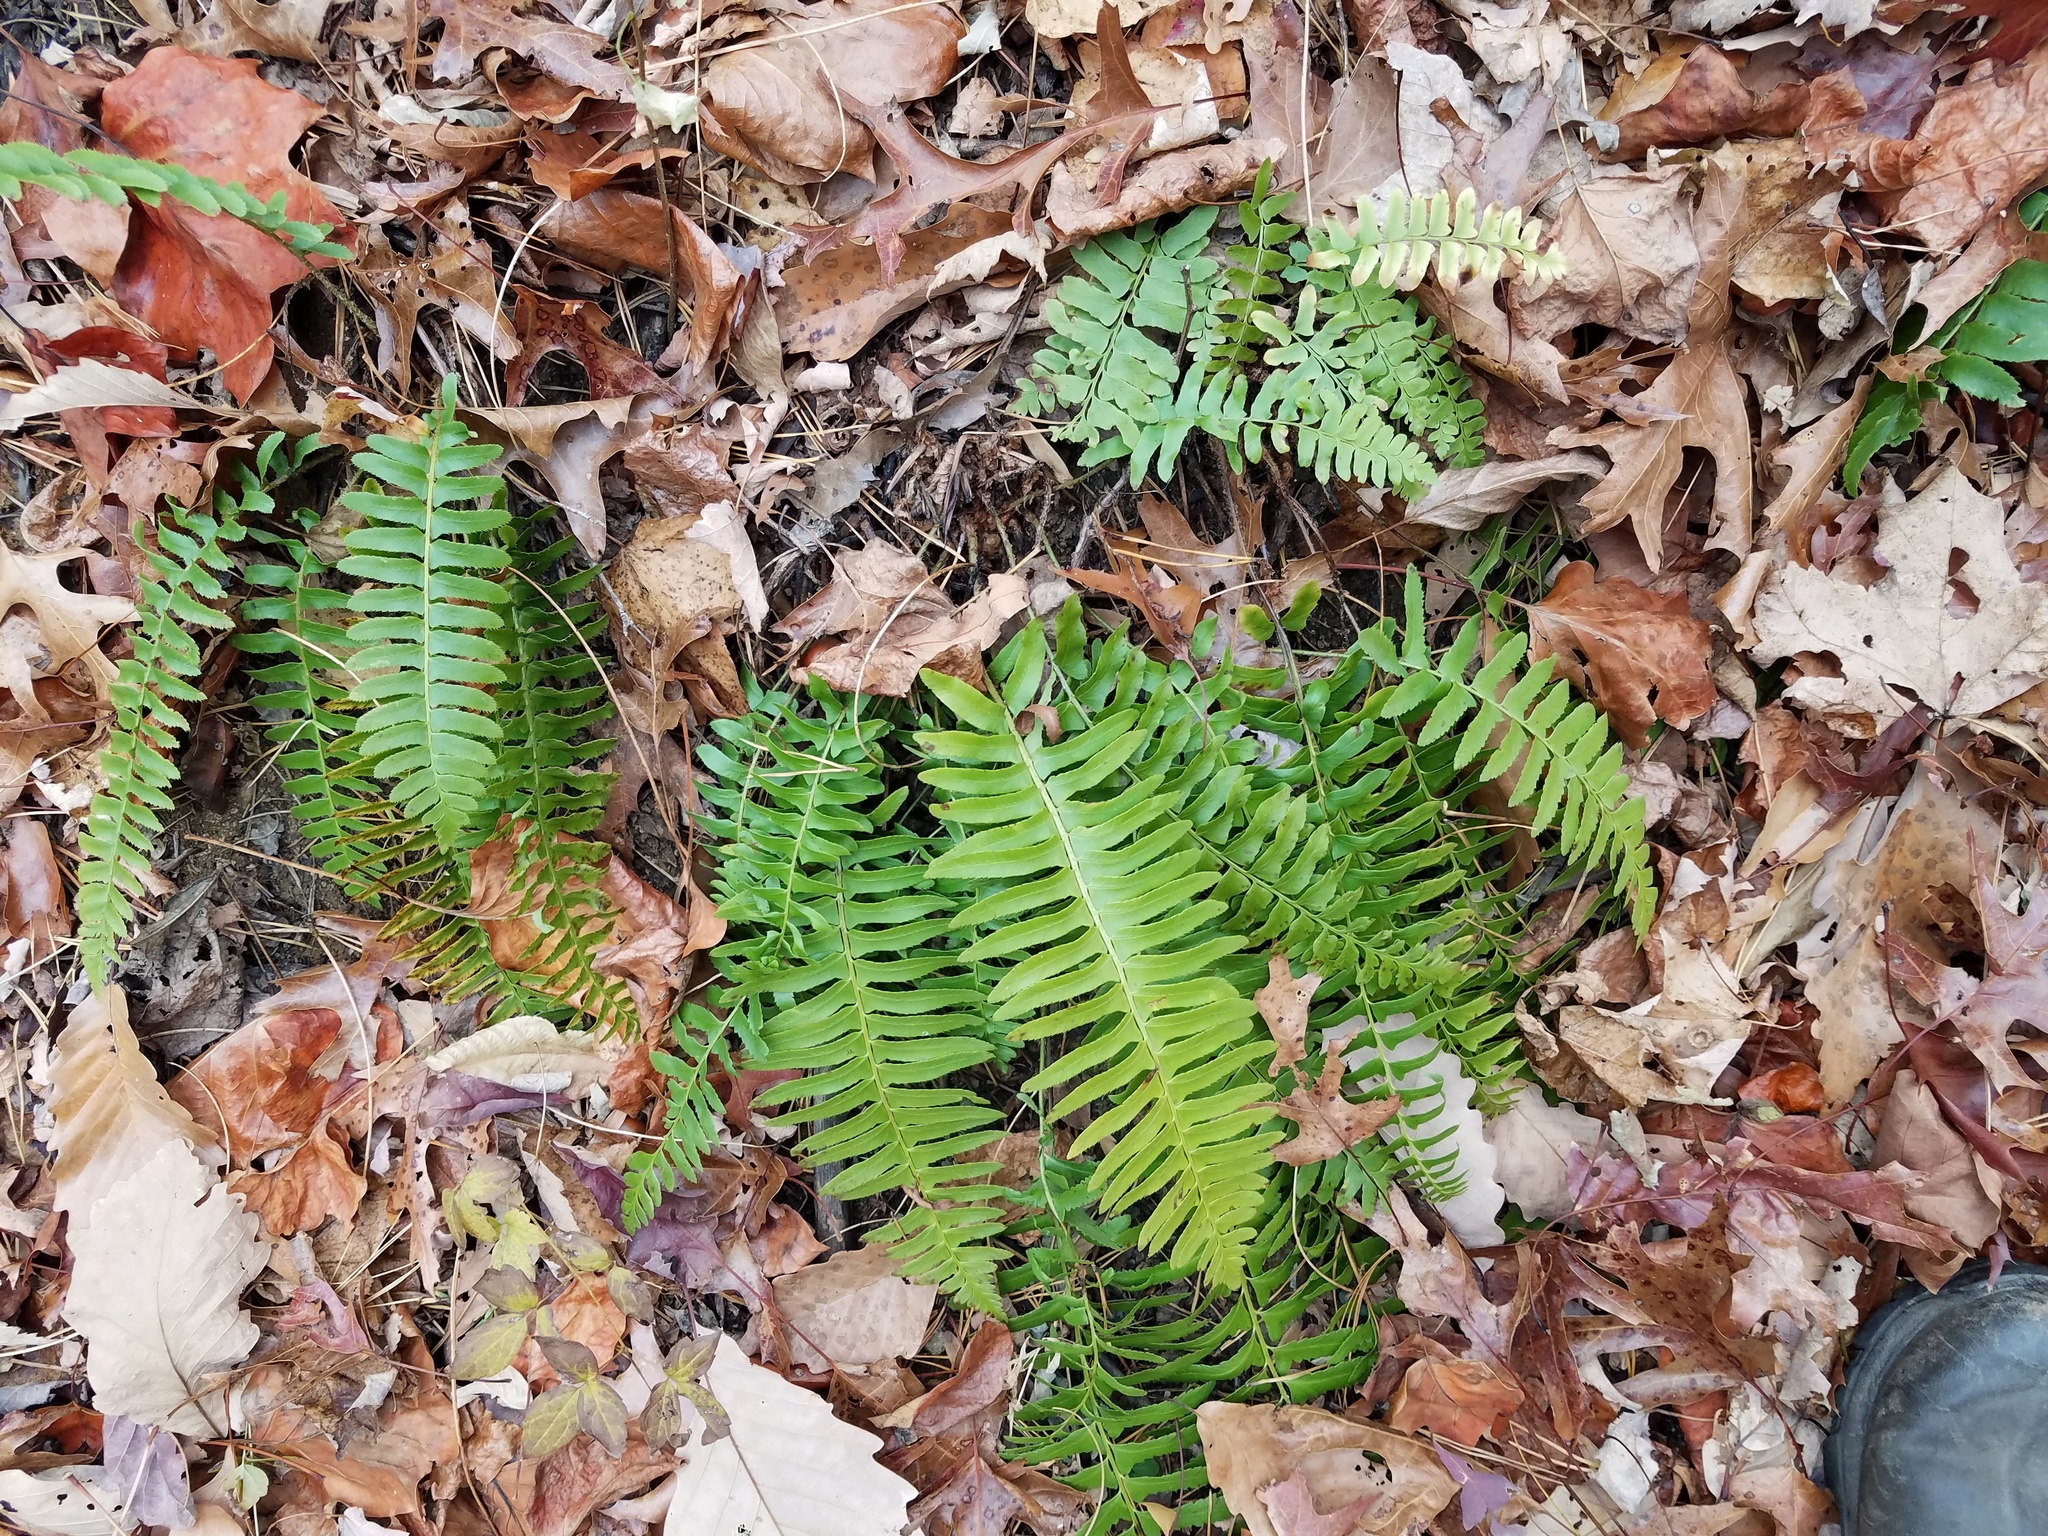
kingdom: Plantae
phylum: Tracheophyta
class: Polypodiopsida
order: Polypodiales
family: Dryopteridaceae
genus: Polystichum
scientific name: Polystichum acrostichoides
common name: Christmas fern
